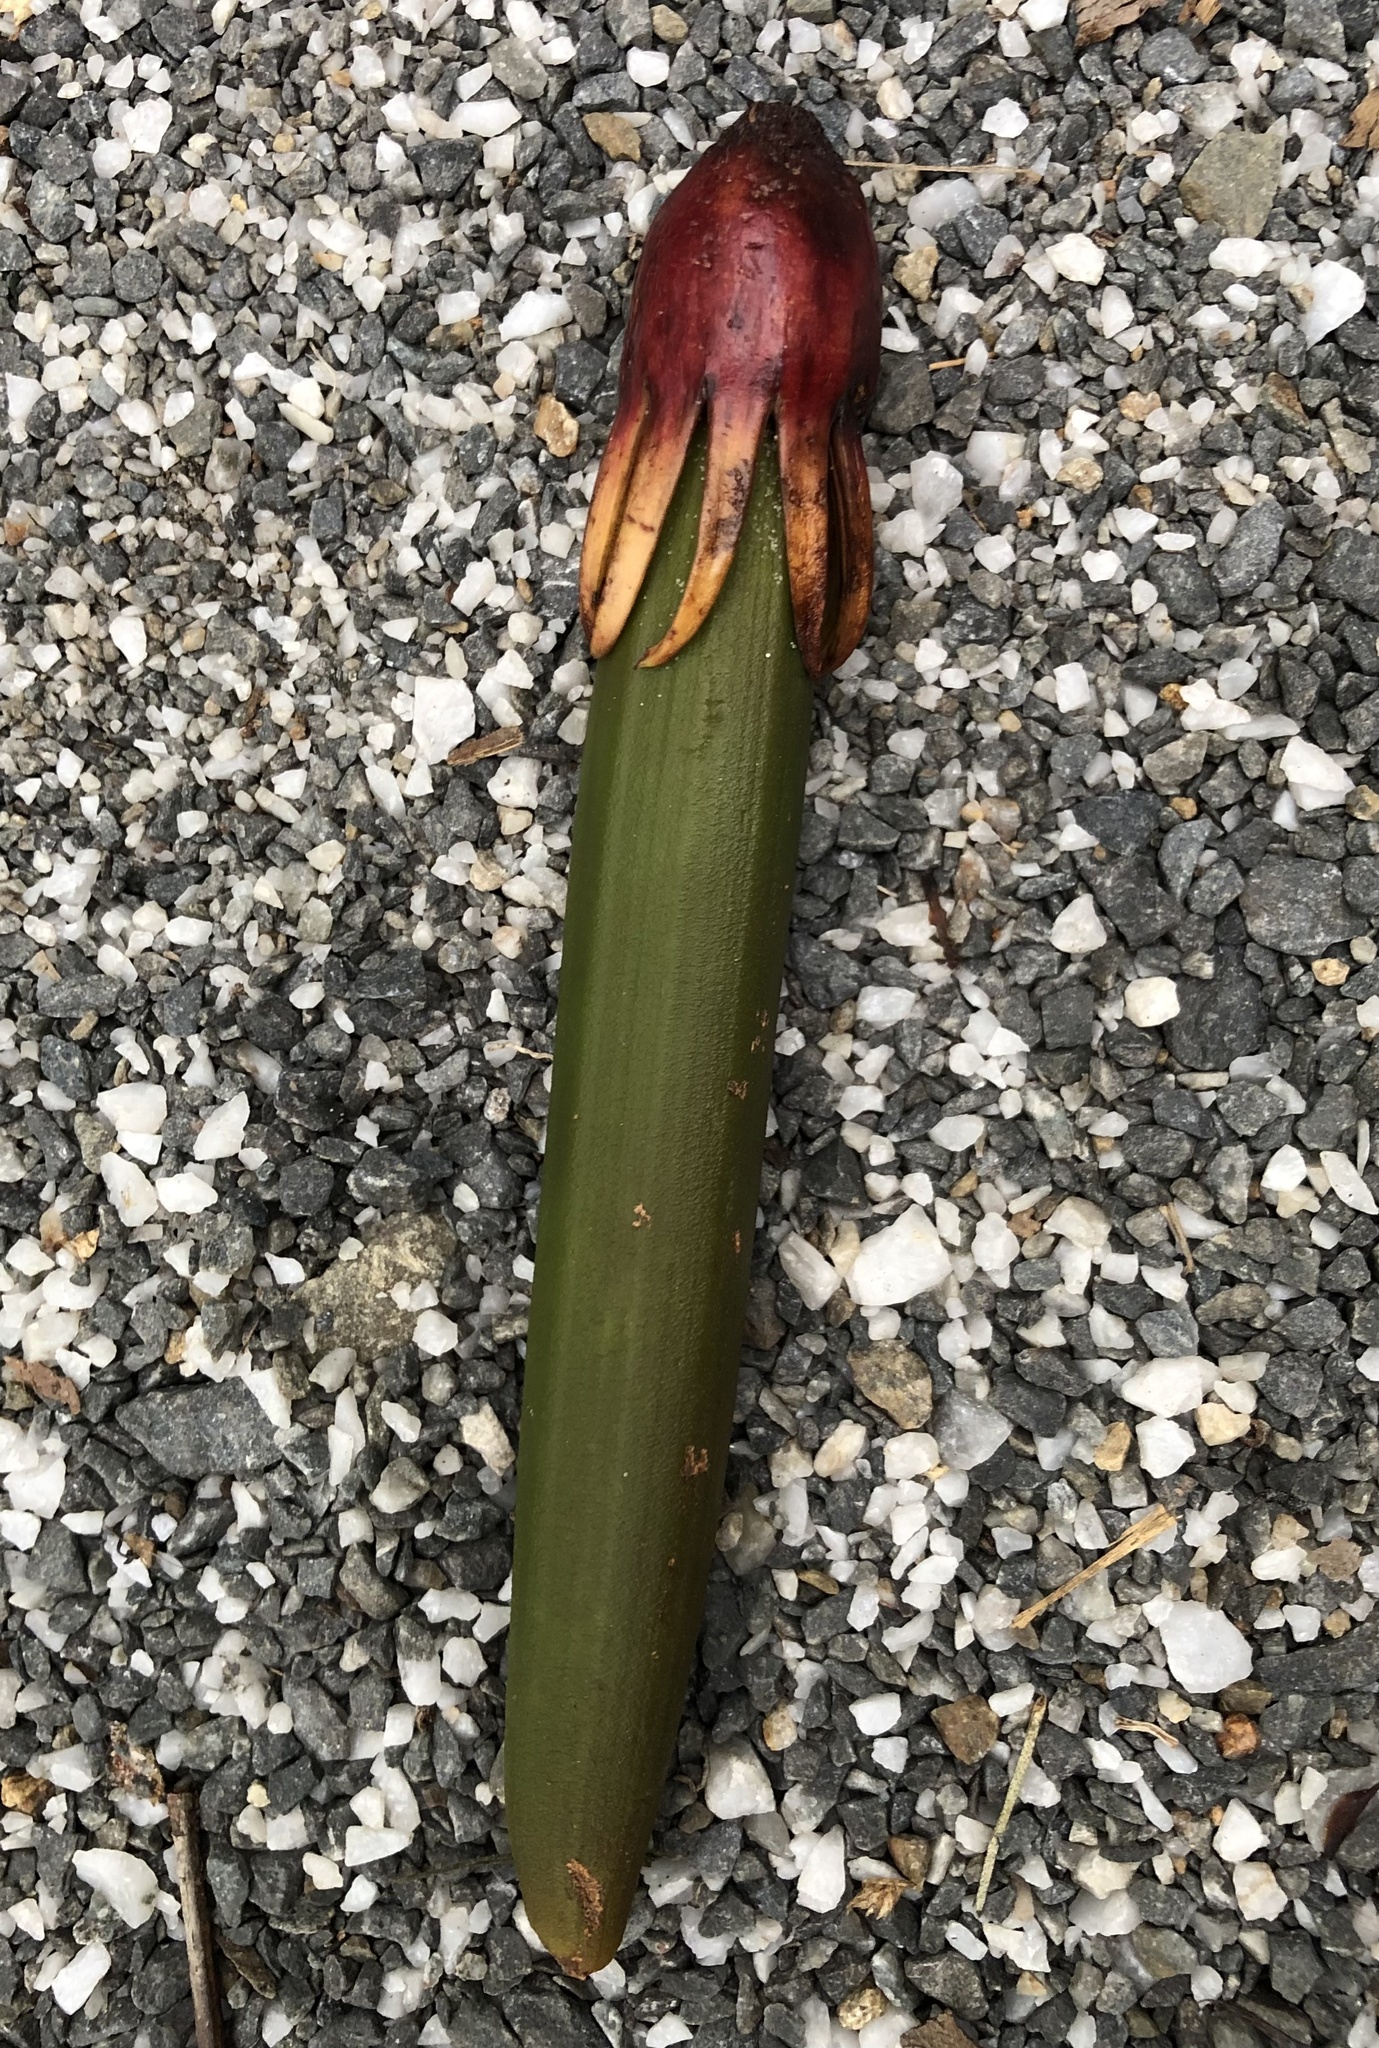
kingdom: Plantae
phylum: Tracheophyta
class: Magnoliopsida
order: Malpighiales
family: Rhizophoraceae
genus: Bruguiera
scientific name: Bruguiera gymnorhiza
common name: Oriental mangrove
